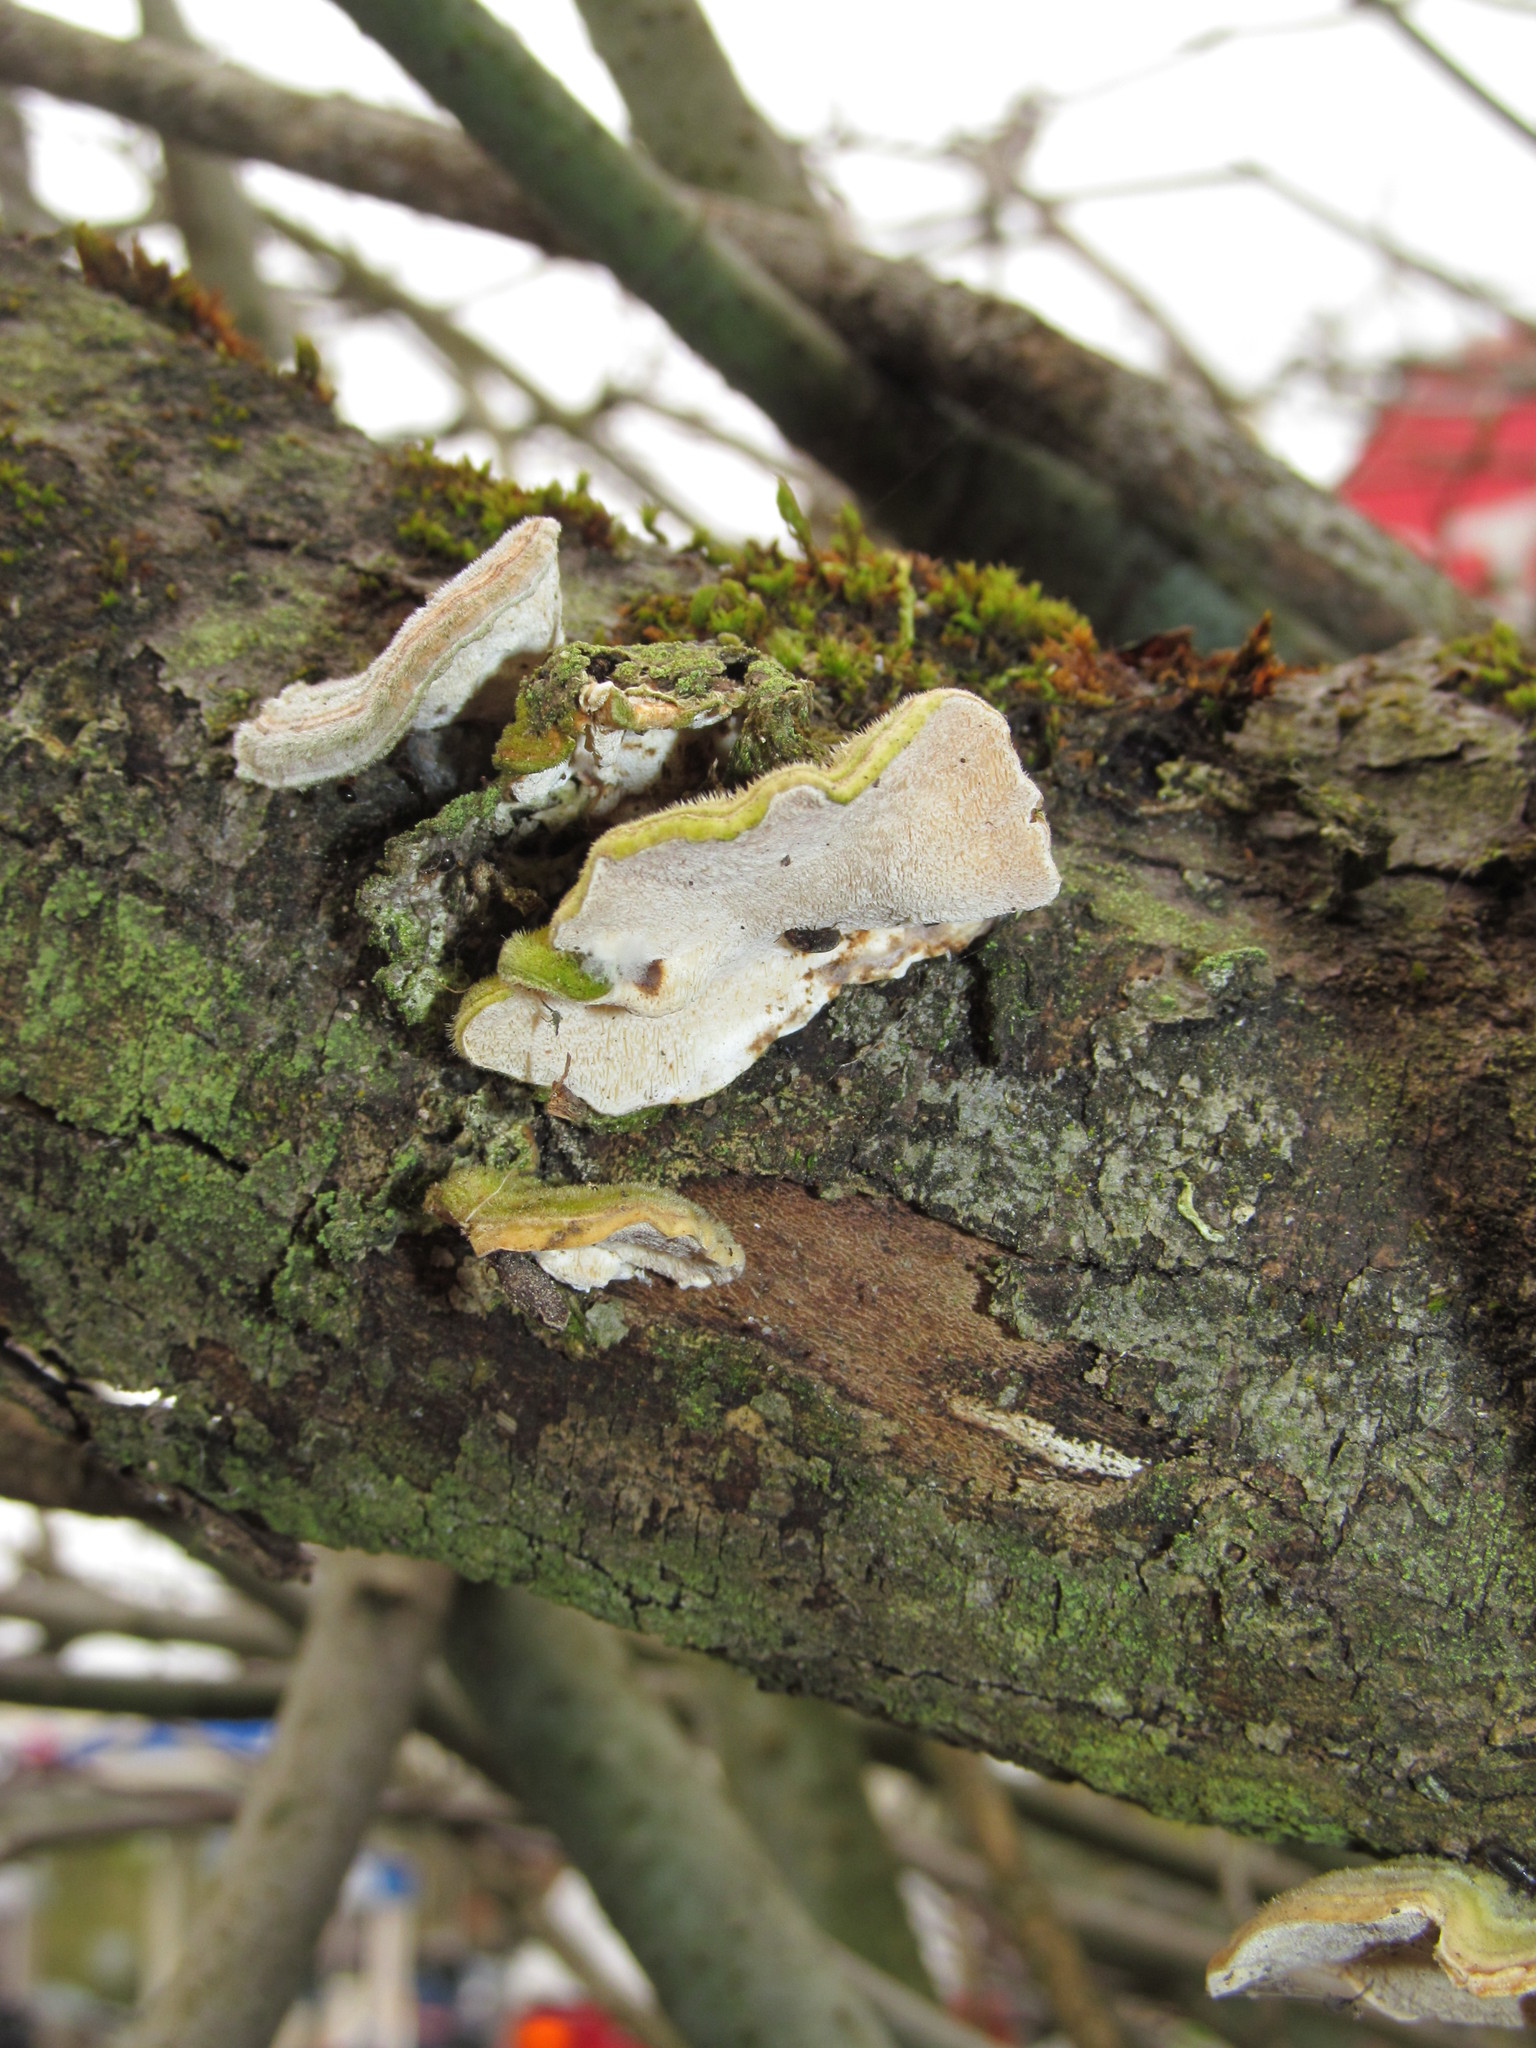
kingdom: Fungi
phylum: Basidiomycota
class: Agaricomycetes
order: Polyporales
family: Polyporaceae
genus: Trametes
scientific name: Trametes versicolor
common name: Turkeytail
